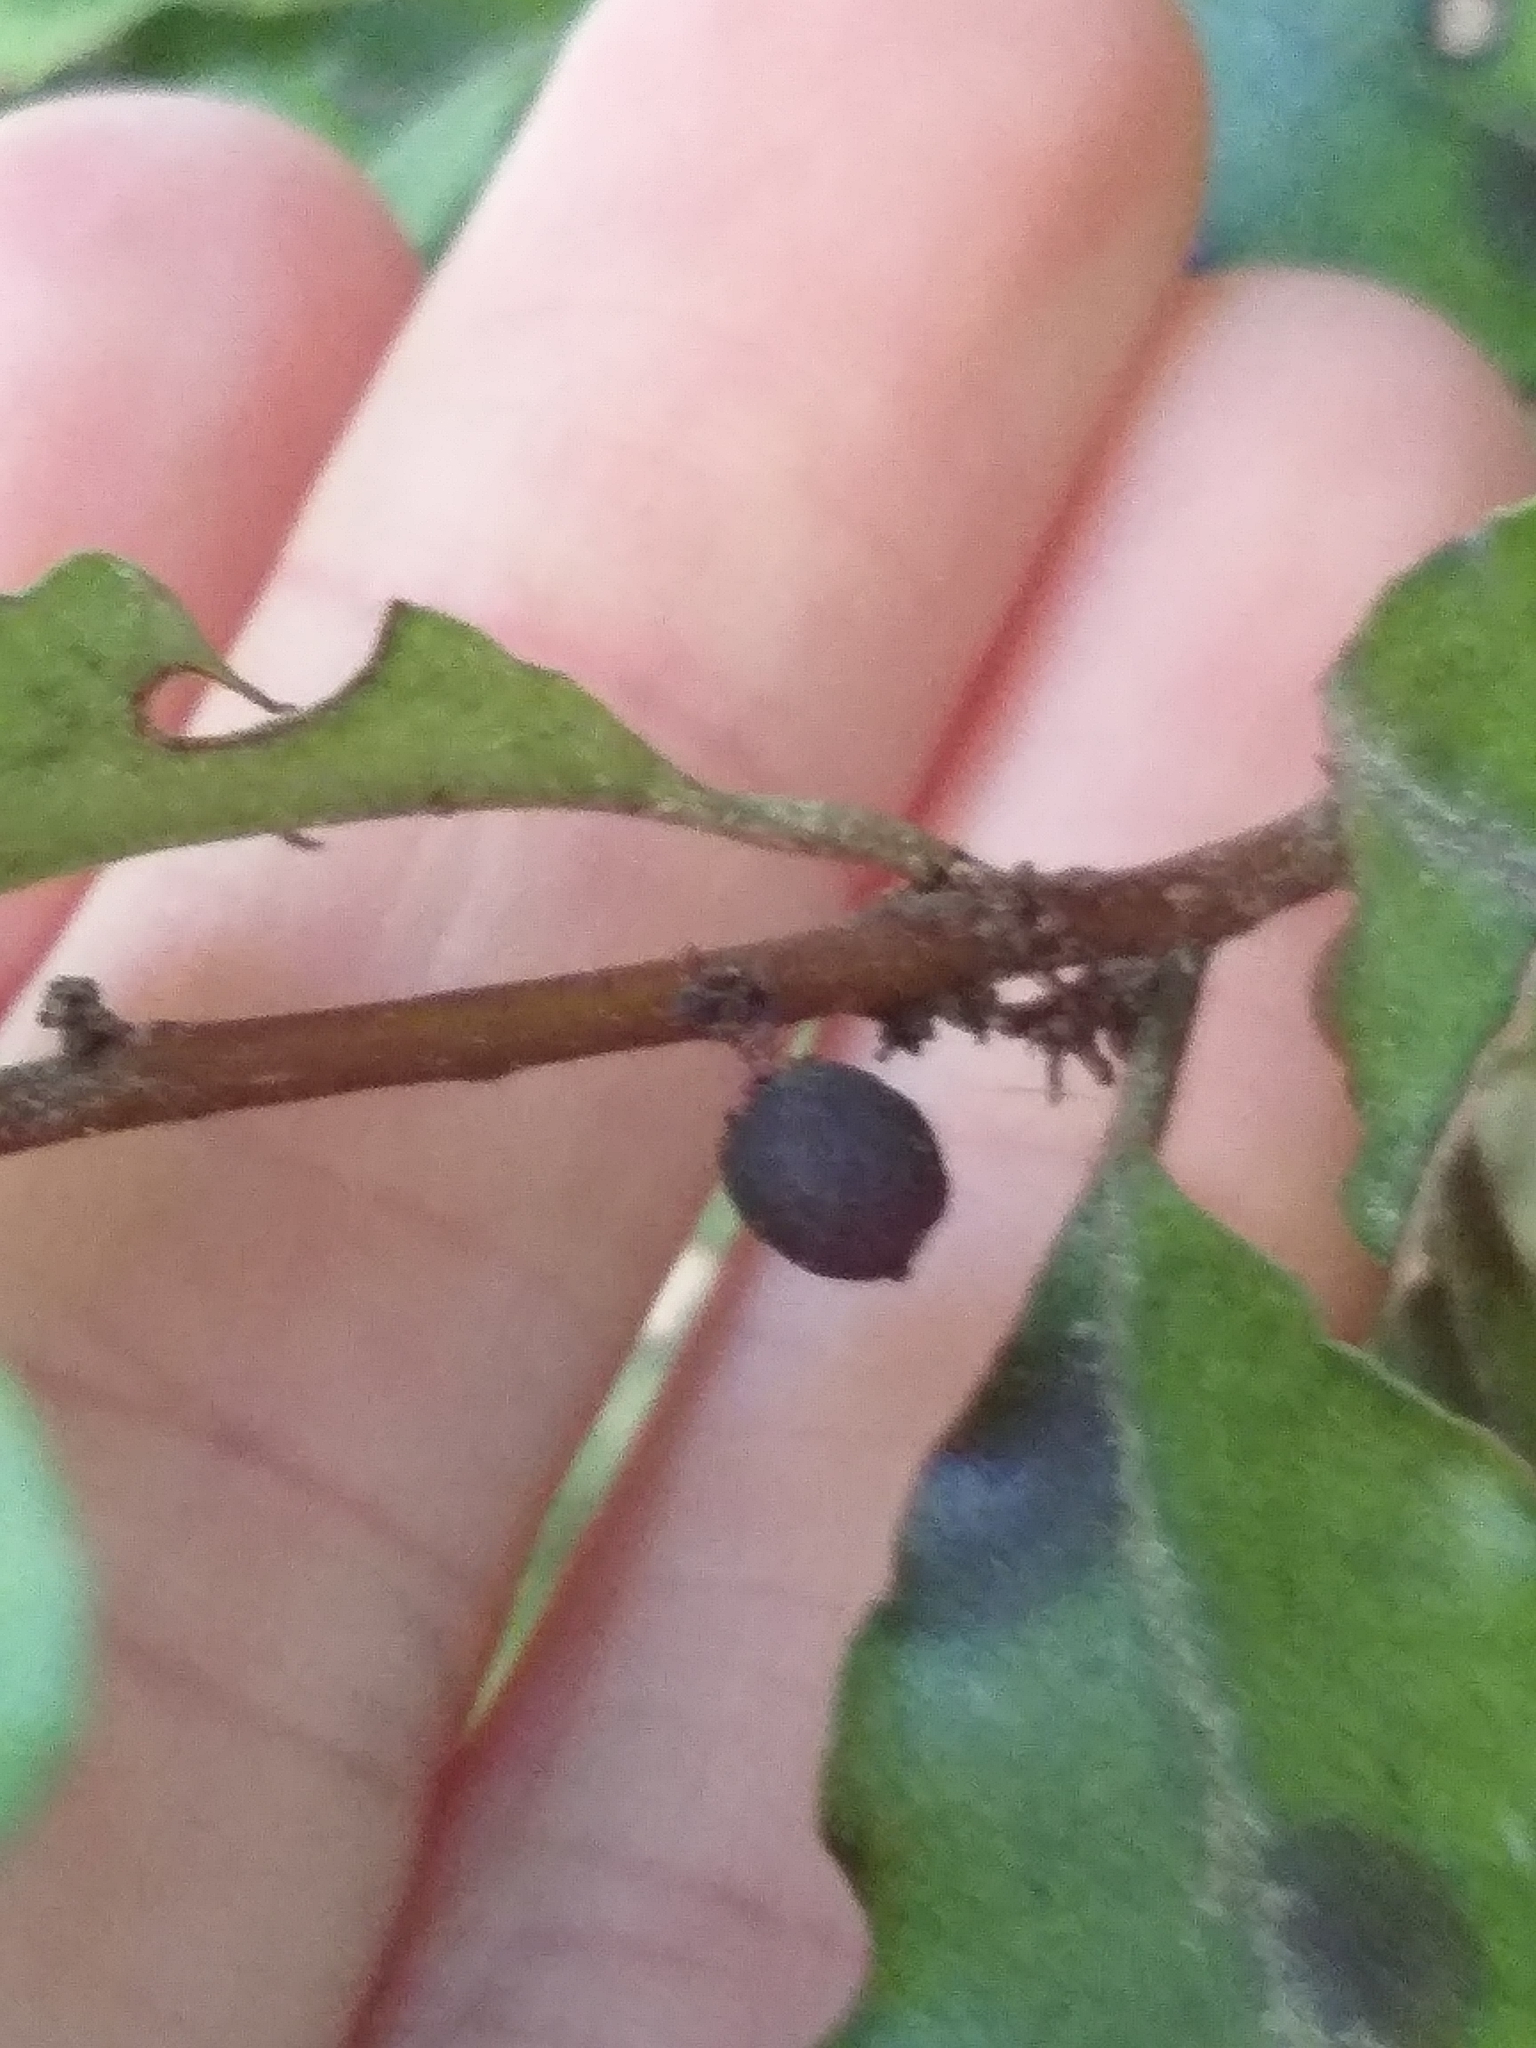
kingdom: Plantae
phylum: Tracheophyta
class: Magnoliopsida
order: Ericales
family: Primulaceae
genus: Myrsine
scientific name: Myrsine australis
